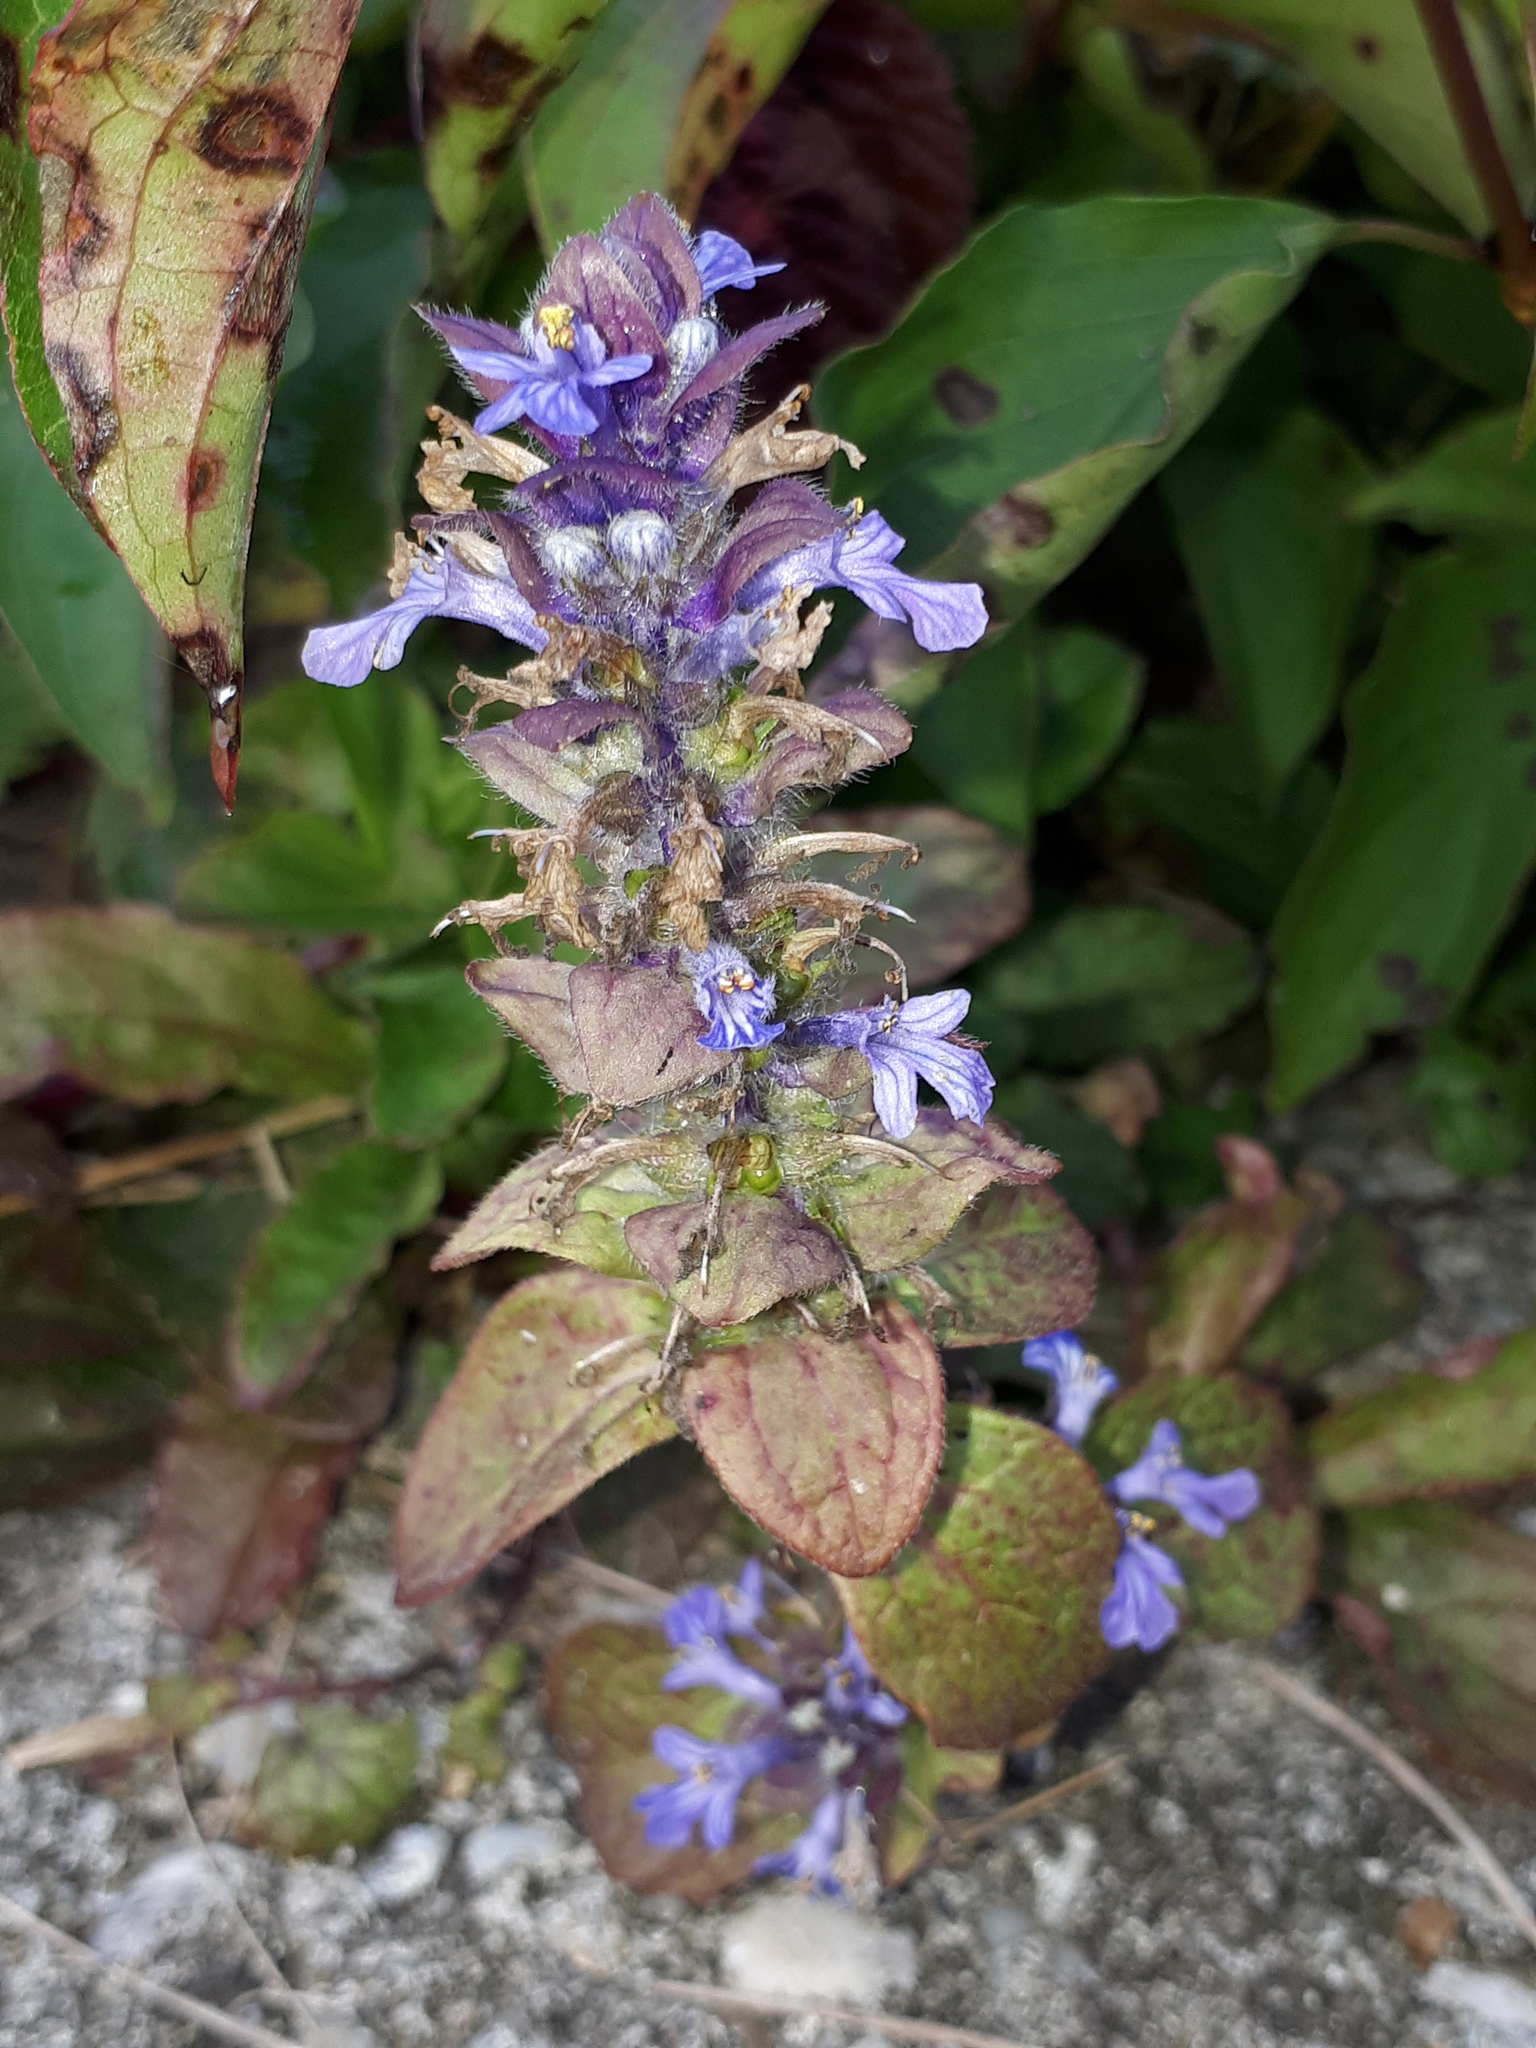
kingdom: Plantae
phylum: Tracheophyta
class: Magnoliopsida
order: Lamiales
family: Lamiaceae
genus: Ajuga
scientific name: Ajuga reptans
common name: Bugle
